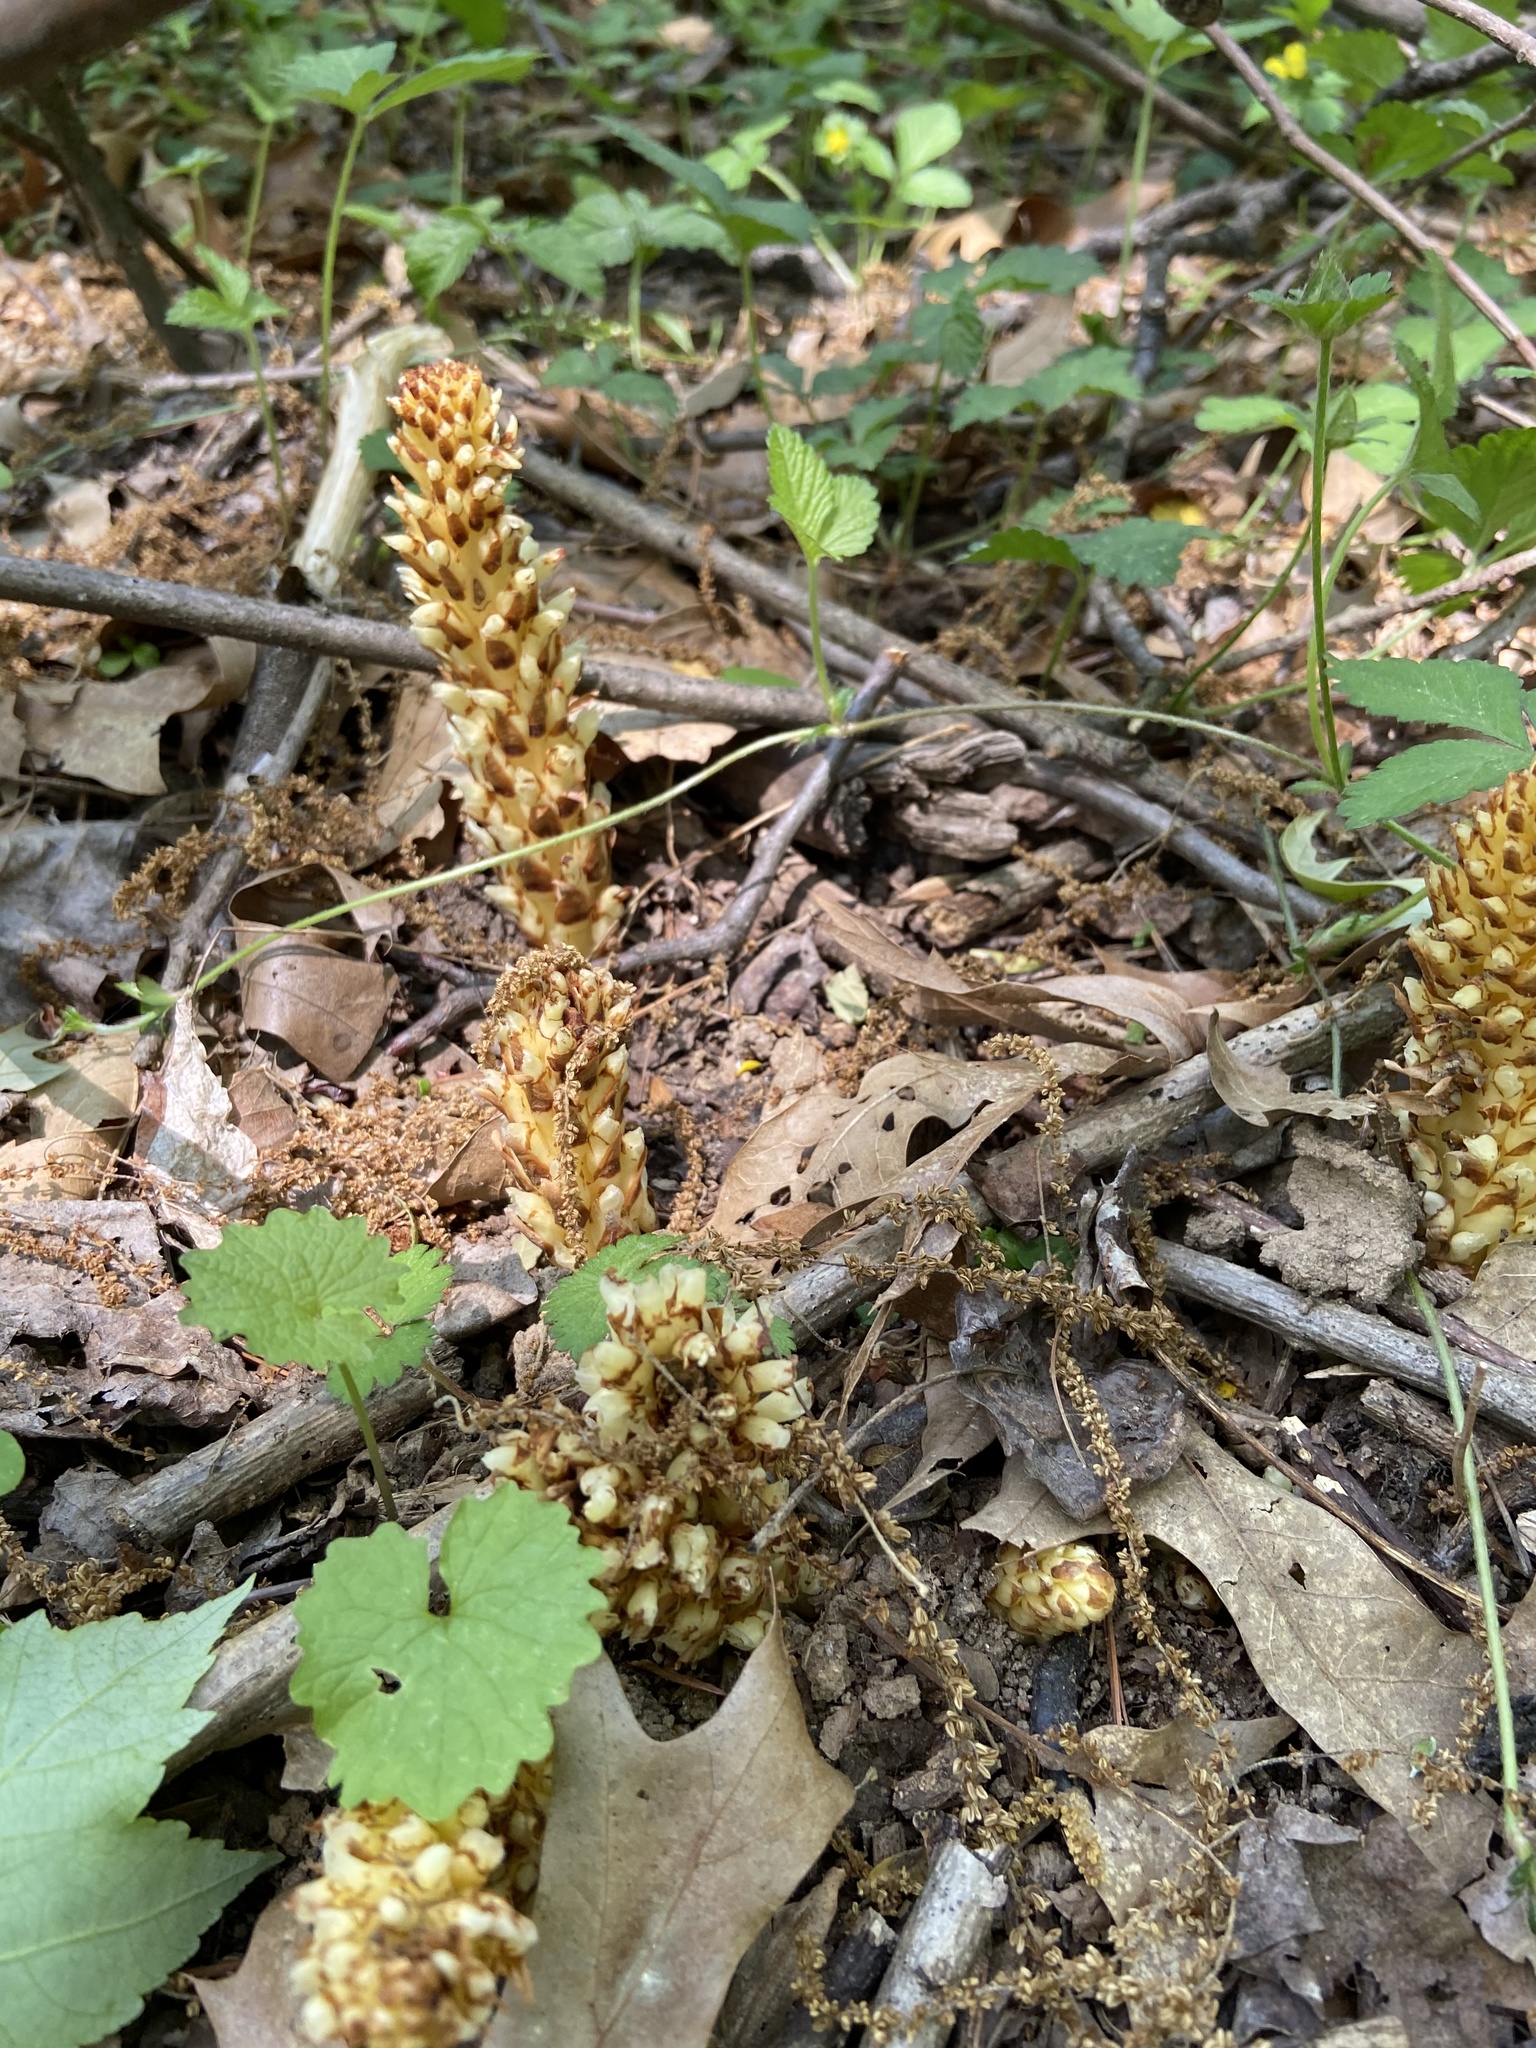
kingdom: Plantae
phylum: Tracheophyta
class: Magnoliopsida
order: Lamiales
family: Orobanchaceae
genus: Conopholis
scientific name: Conopholis americana
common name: American cancer-root
